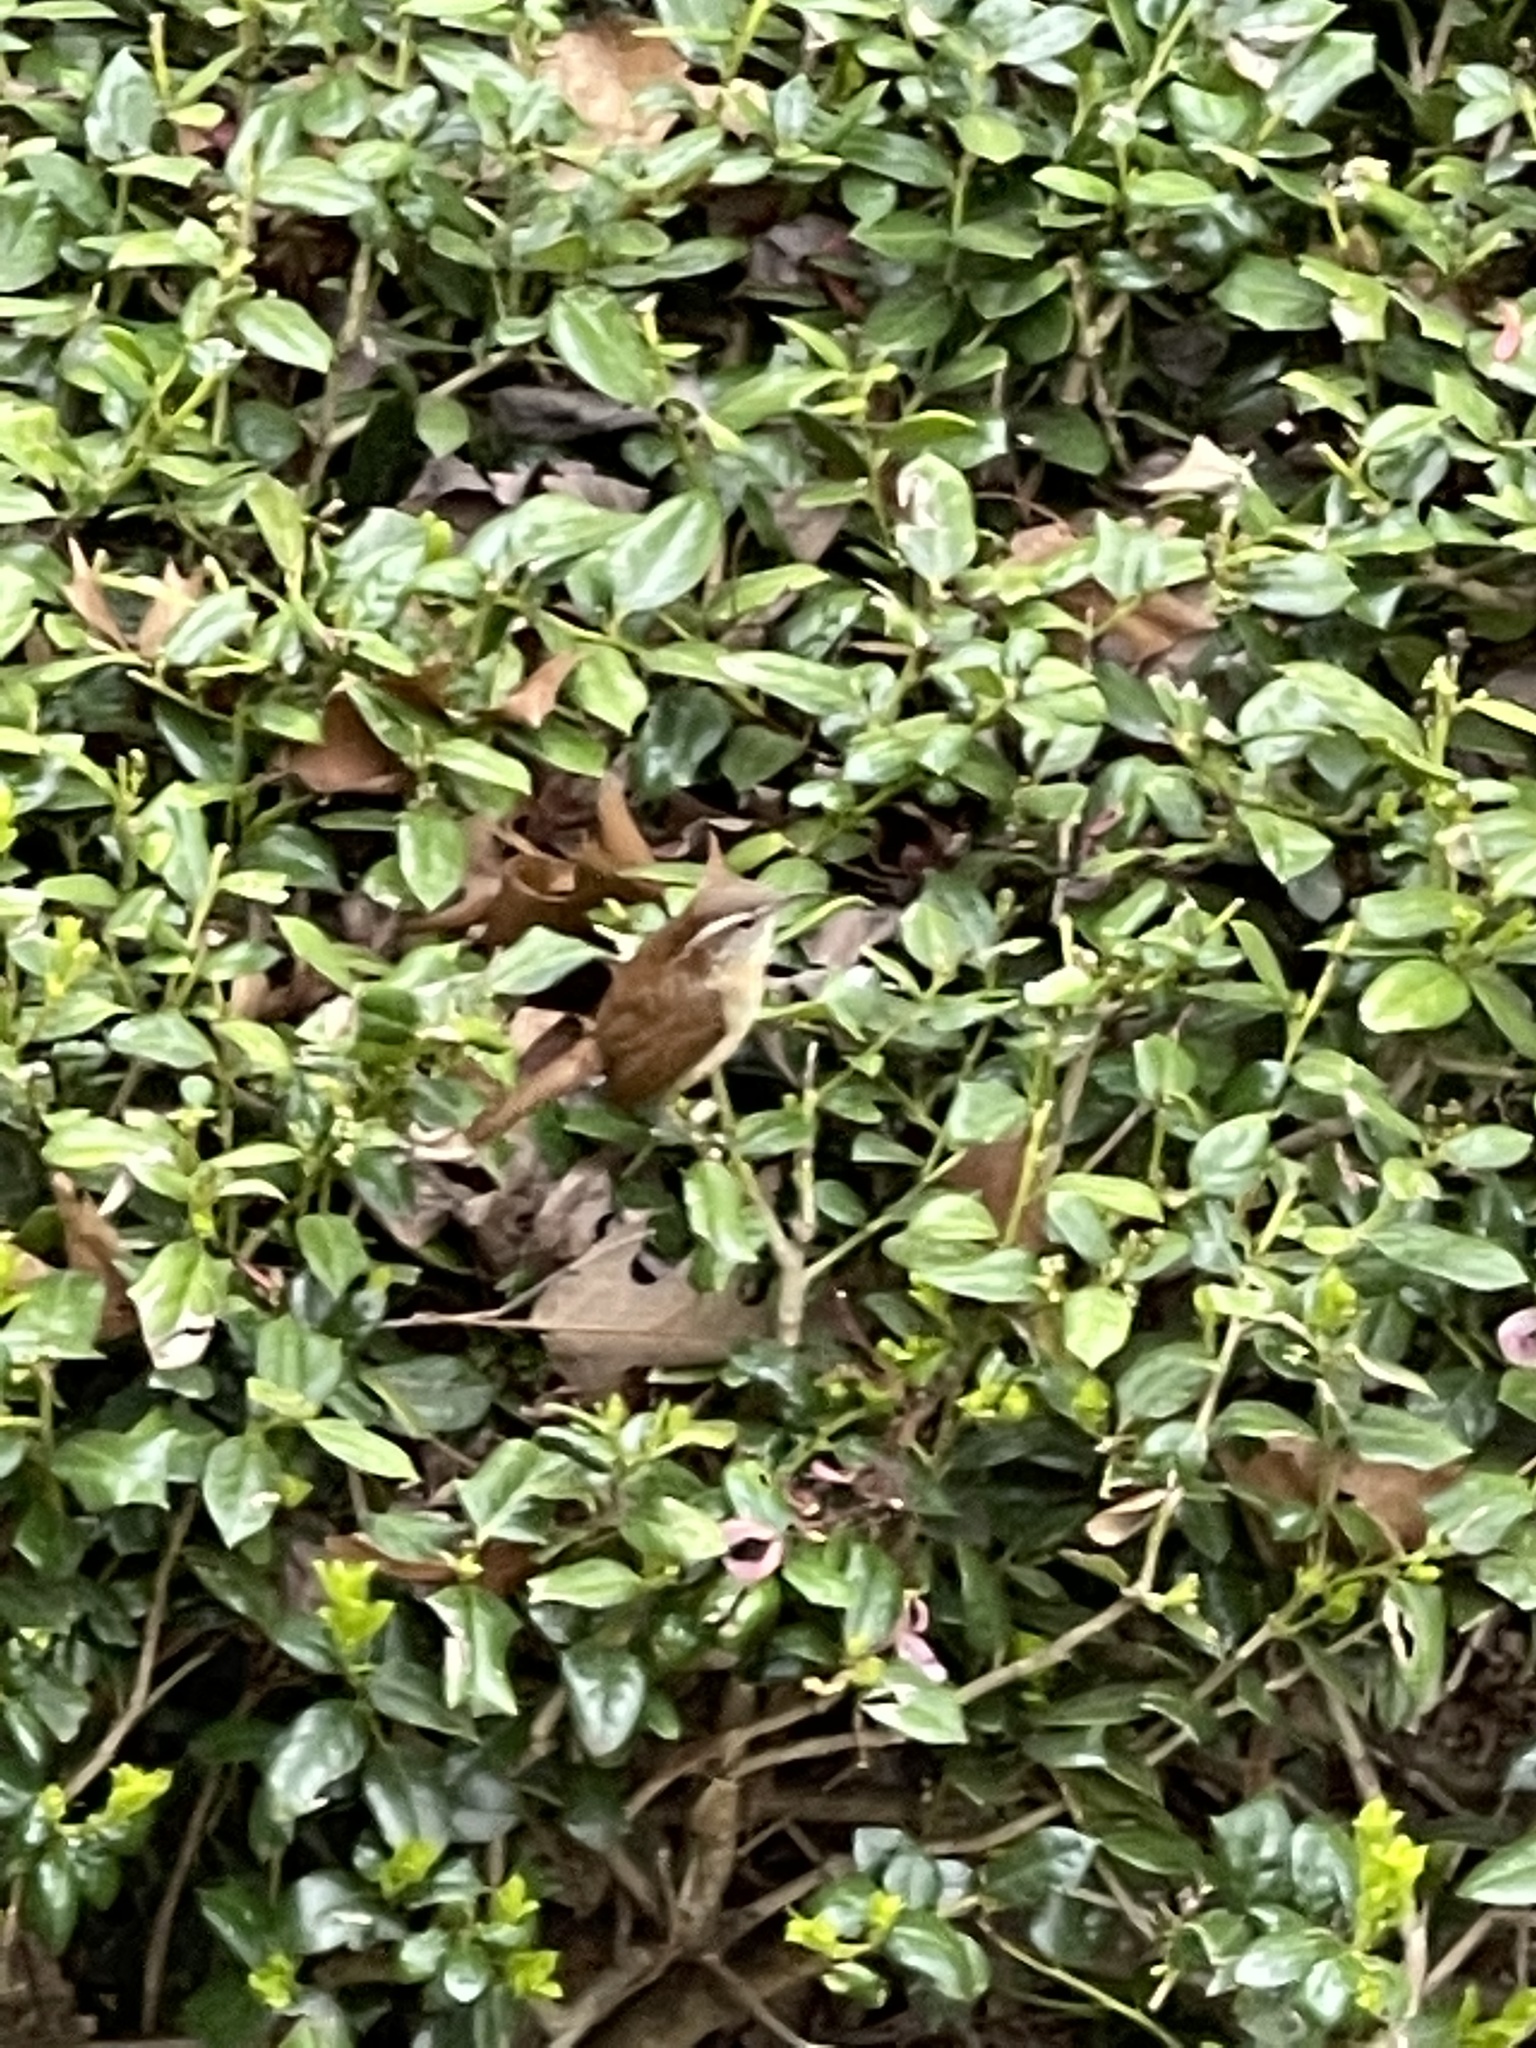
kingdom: Animalia
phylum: Chordata
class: Aves
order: Passeriformes
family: Troglodytidae
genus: Thryothorus
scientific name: Thryothorus ludovicianus
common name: Carolina wren
